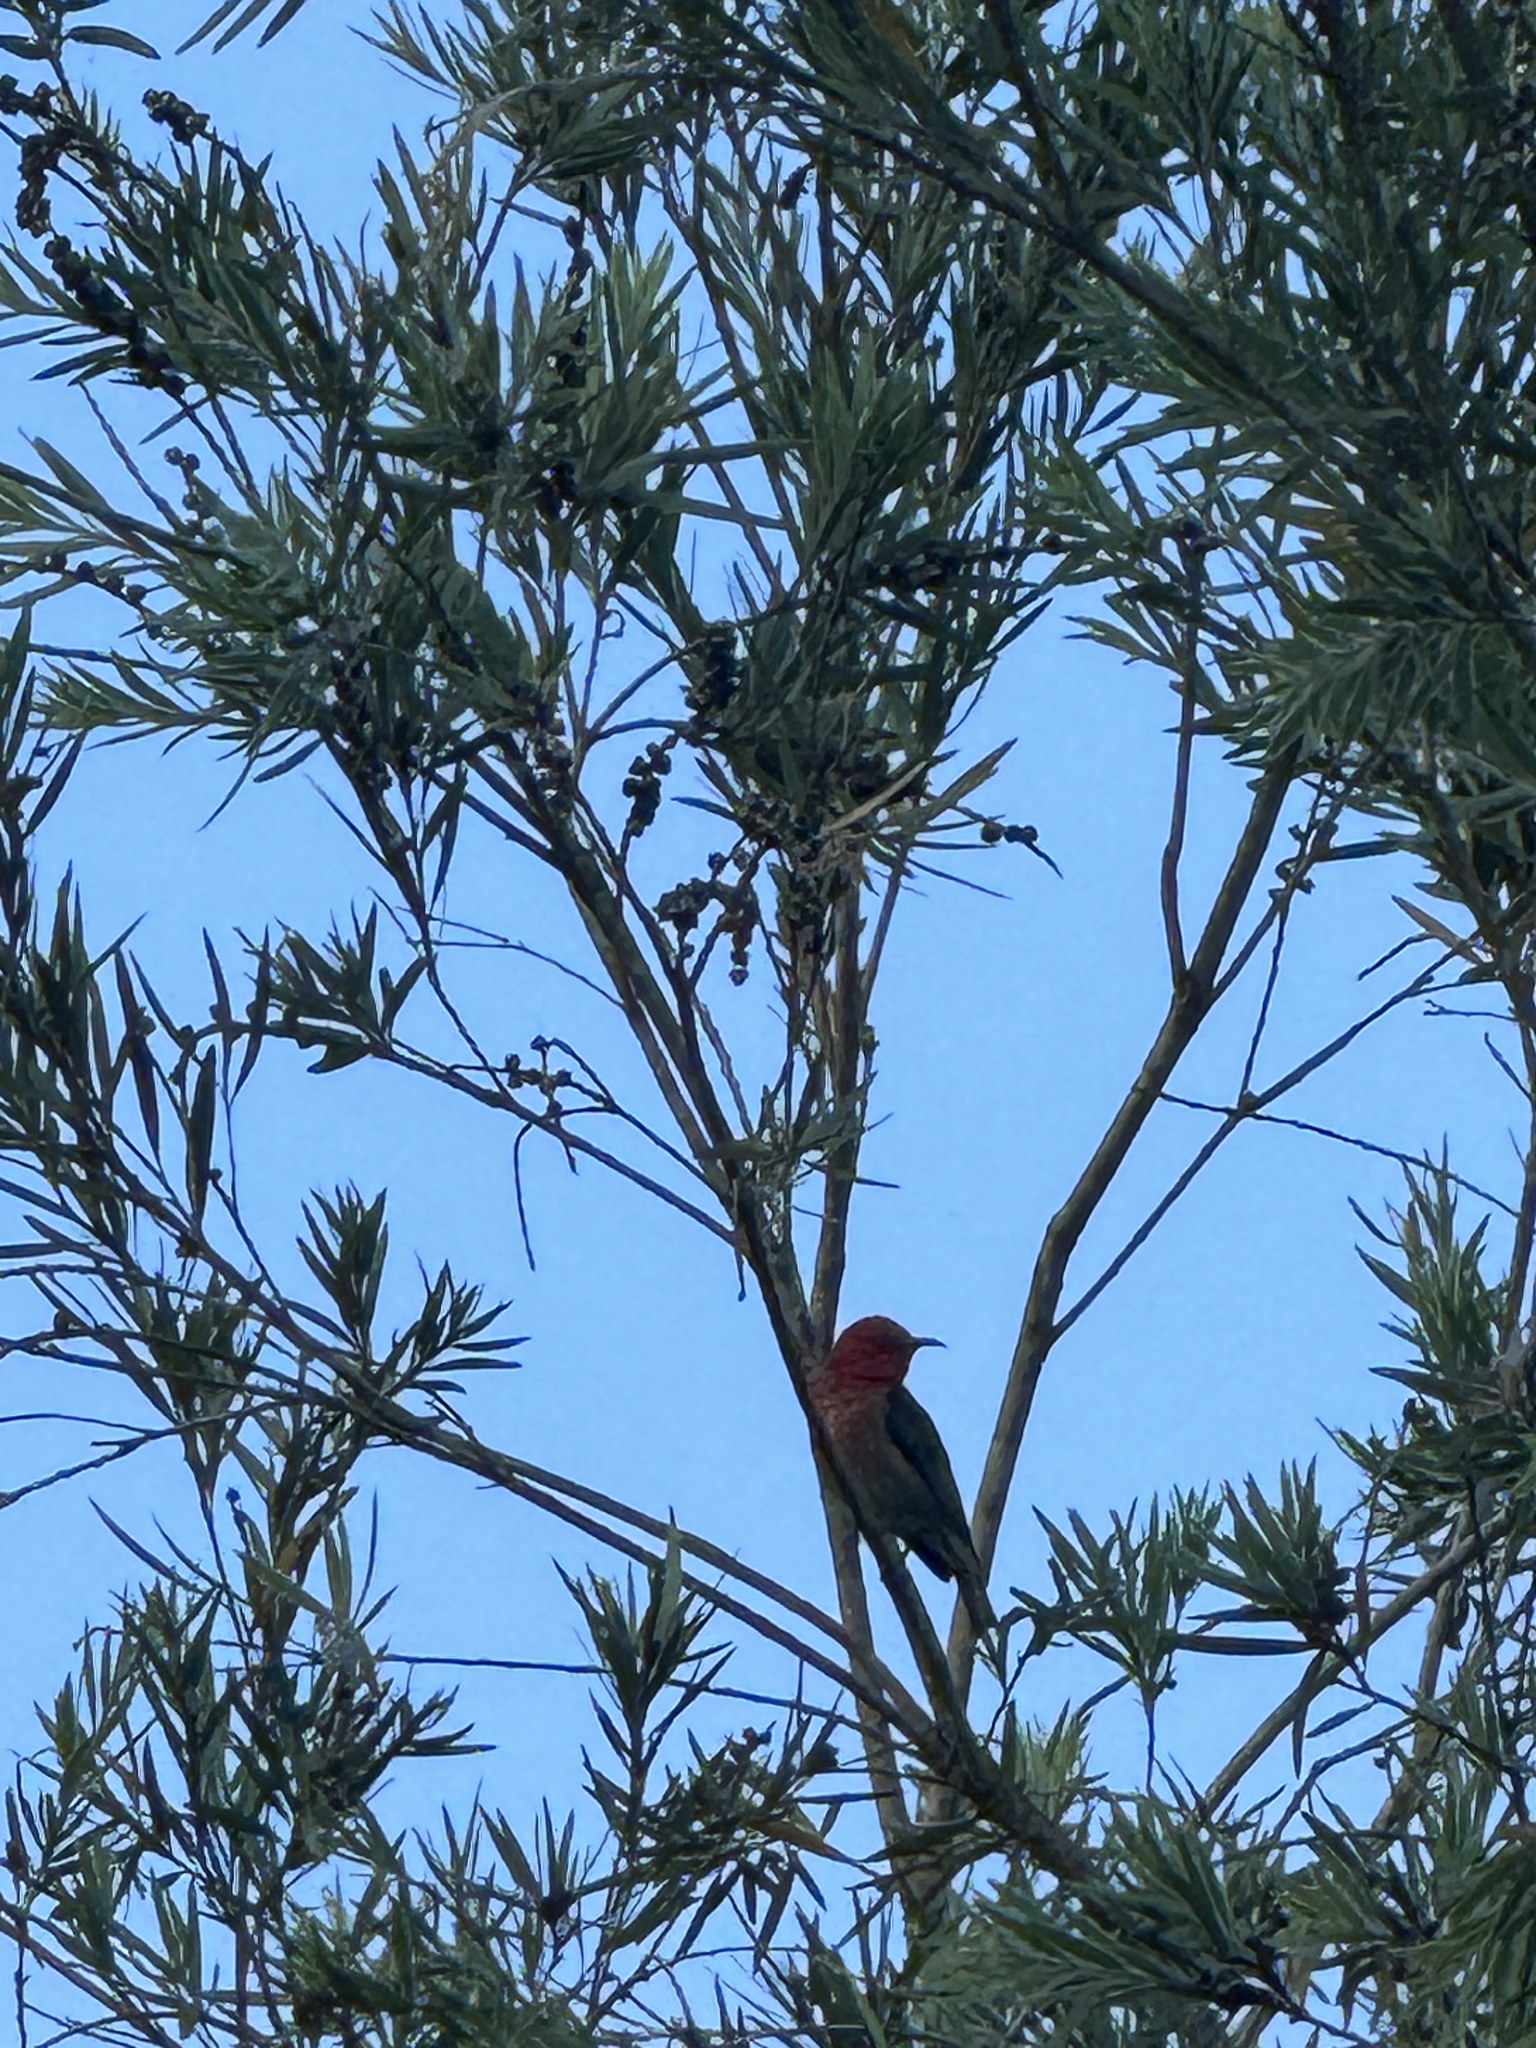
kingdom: Animalia
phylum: Chordata
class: Aves
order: Passeriformes
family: Meliphagidae
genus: Myzomela
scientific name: Myzomela sanguinolenta
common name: Scarlet myzomela
